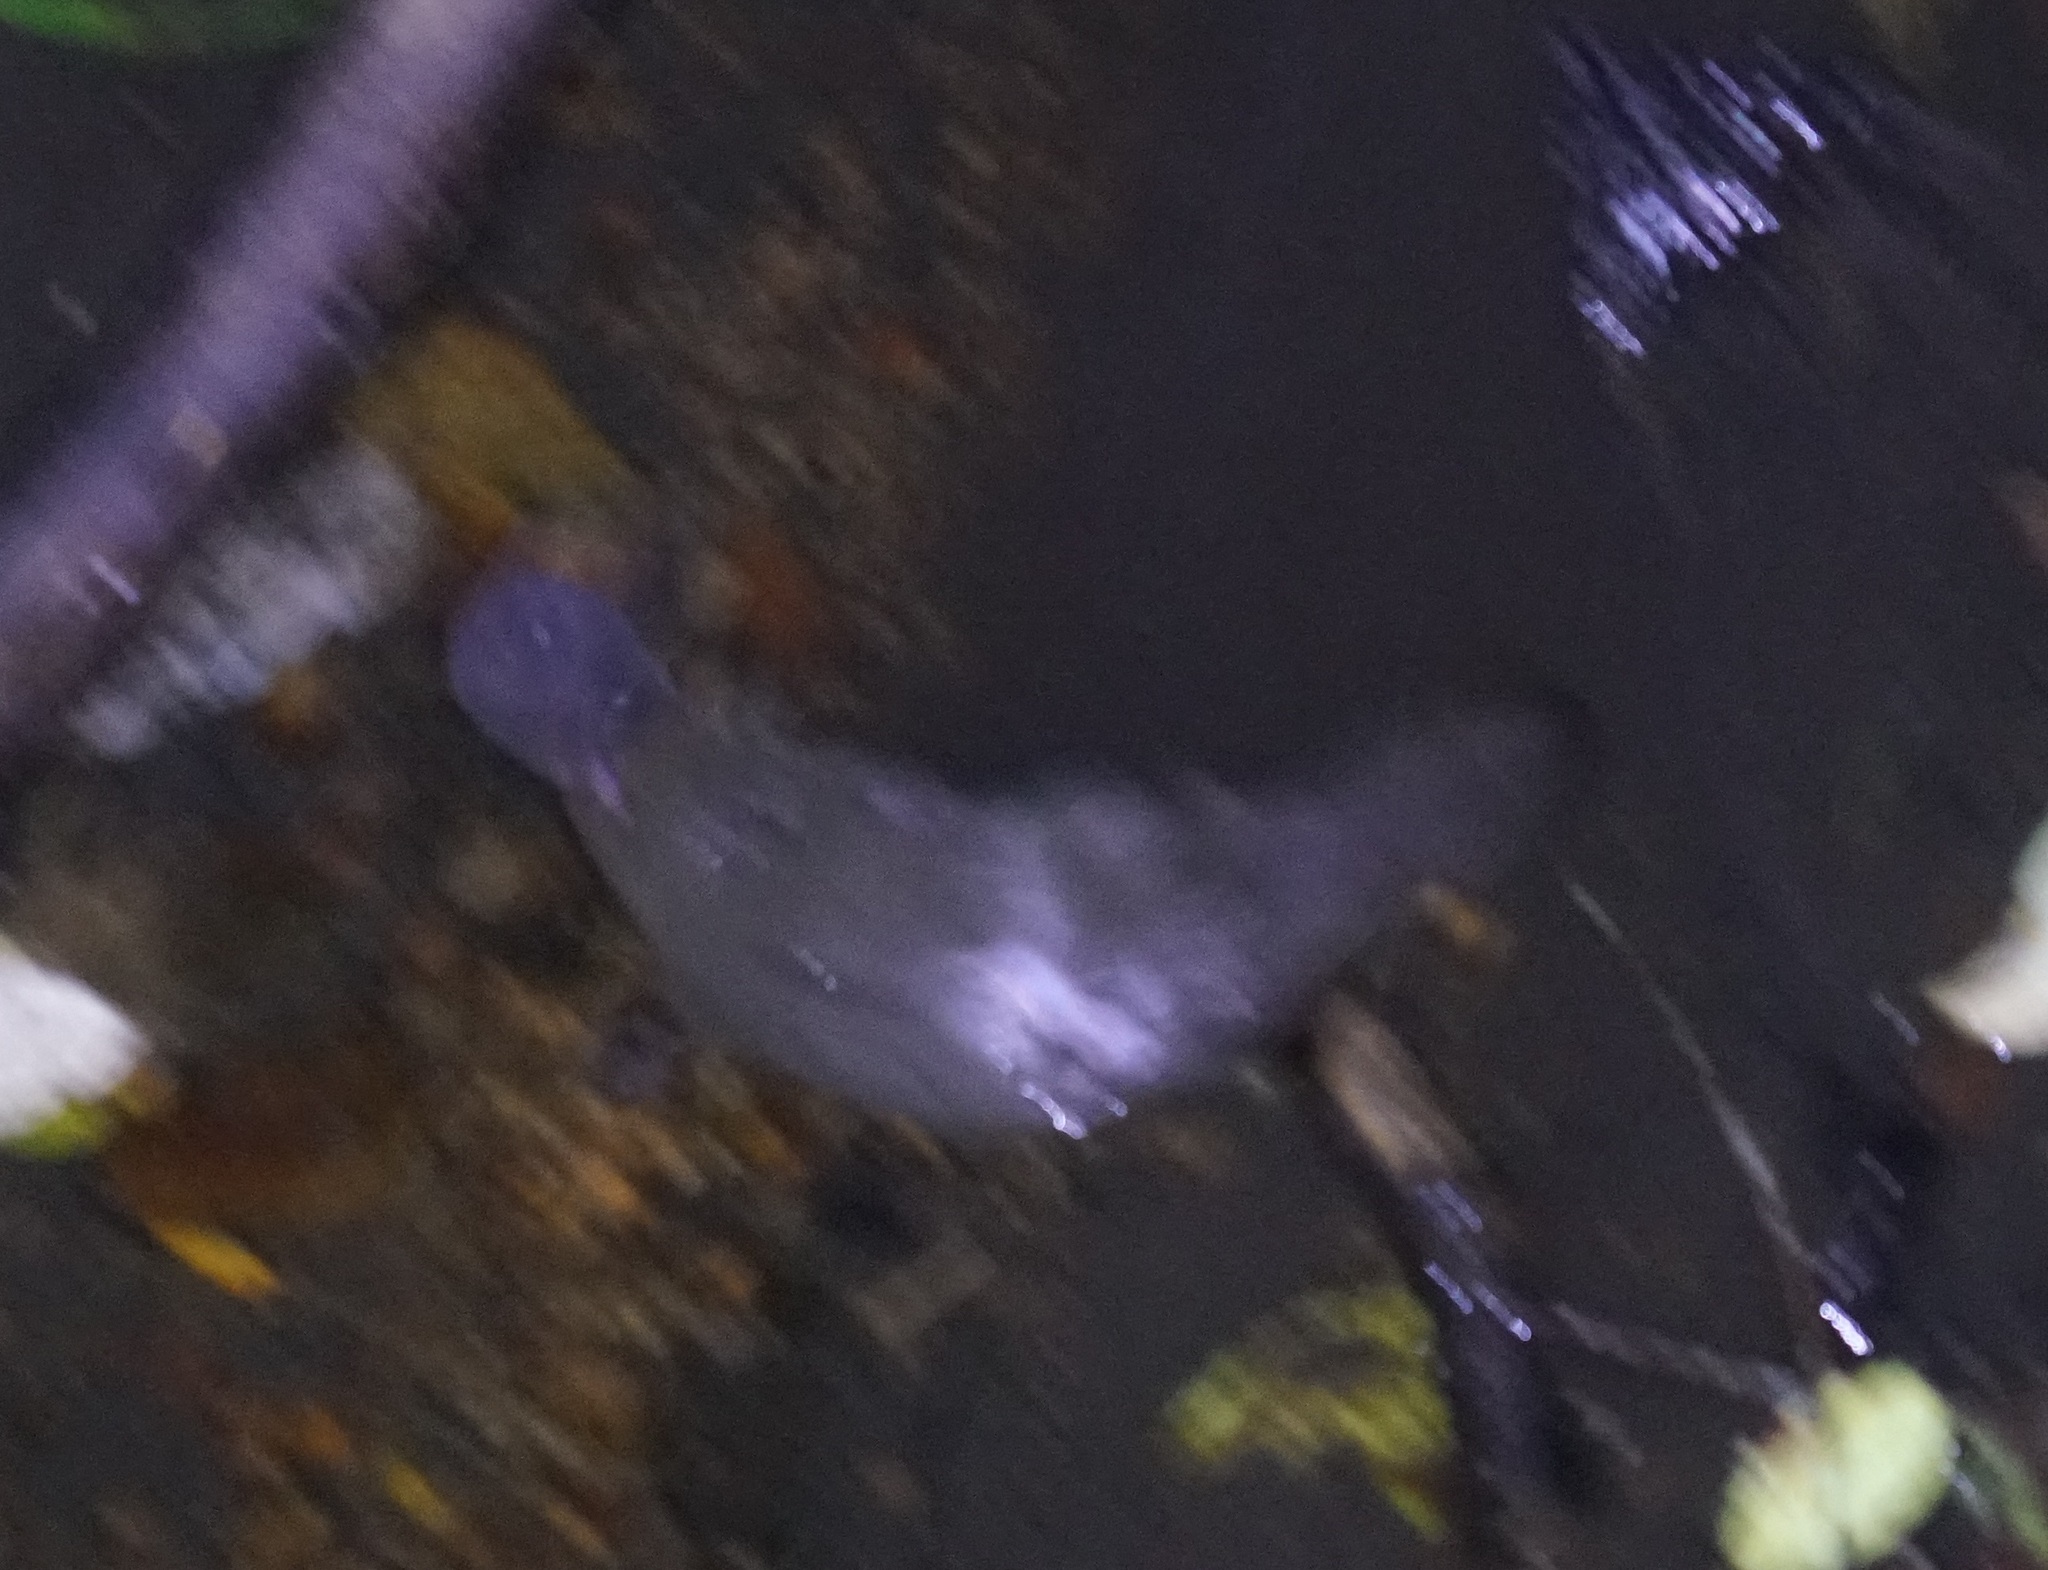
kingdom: Animalia
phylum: Chordata
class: Mammalia
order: Monotremata
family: Ornithorhynchidae
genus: Ornithorhynchus
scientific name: Ornithorhynchus anatinus
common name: Platypus
